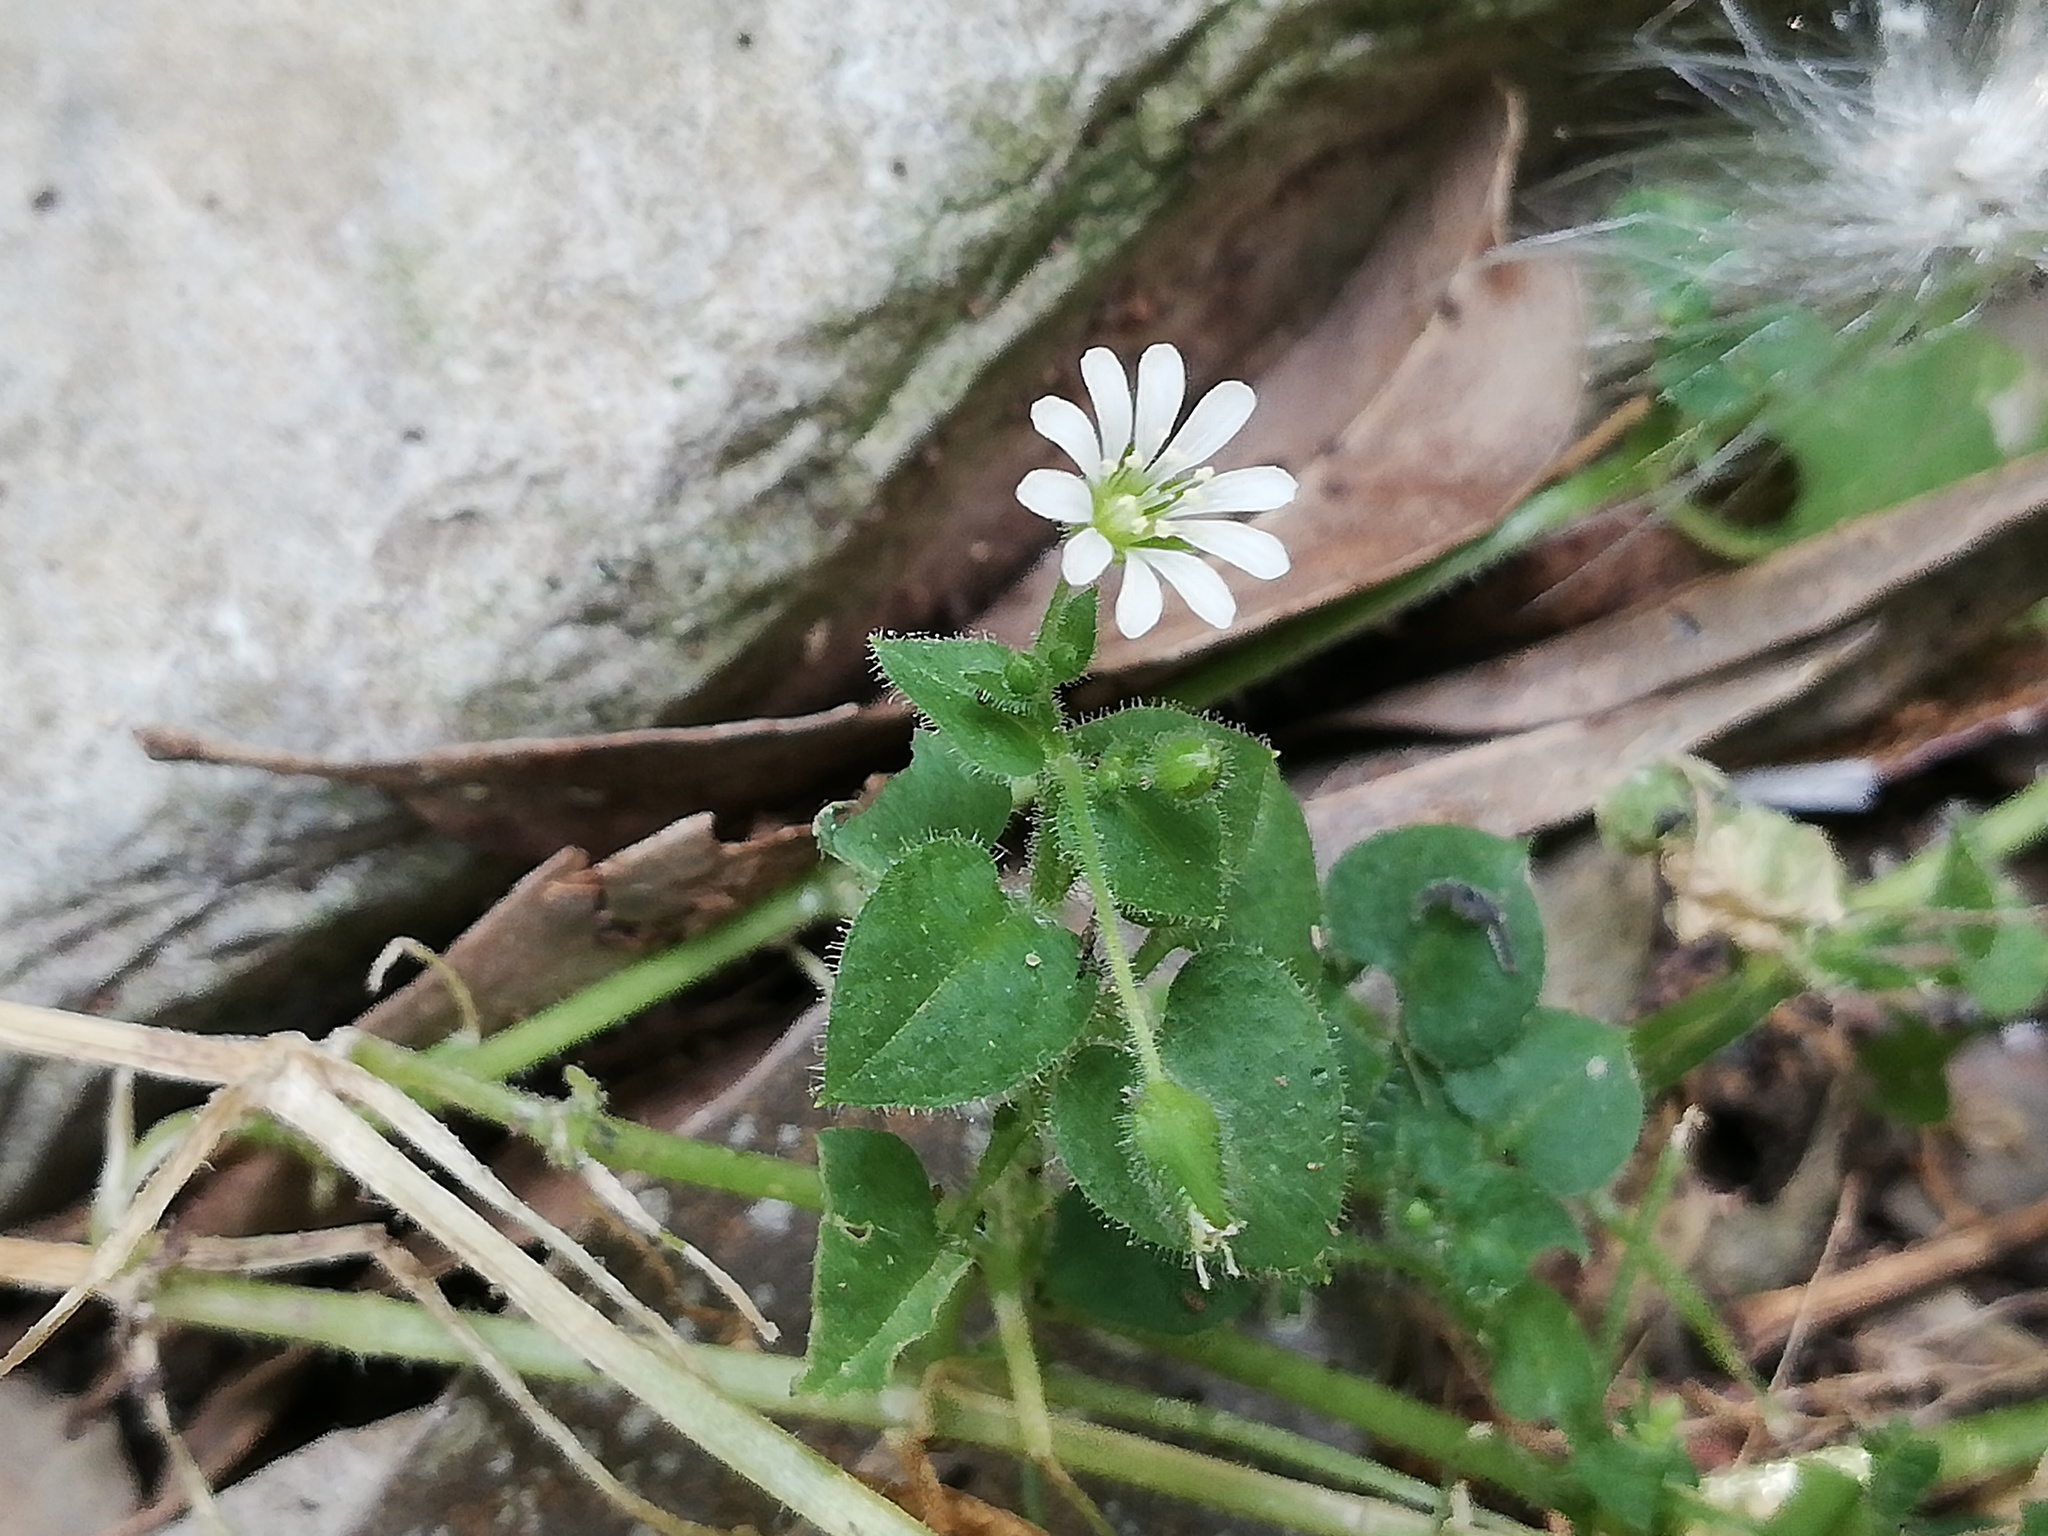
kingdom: Plantae
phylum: Tracheophyta
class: Magnoliopsida
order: Caryophyllales
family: Caryophyllaceae
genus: Stellaria
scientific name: Stellaria cuspidata
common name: Mexican chickweed
